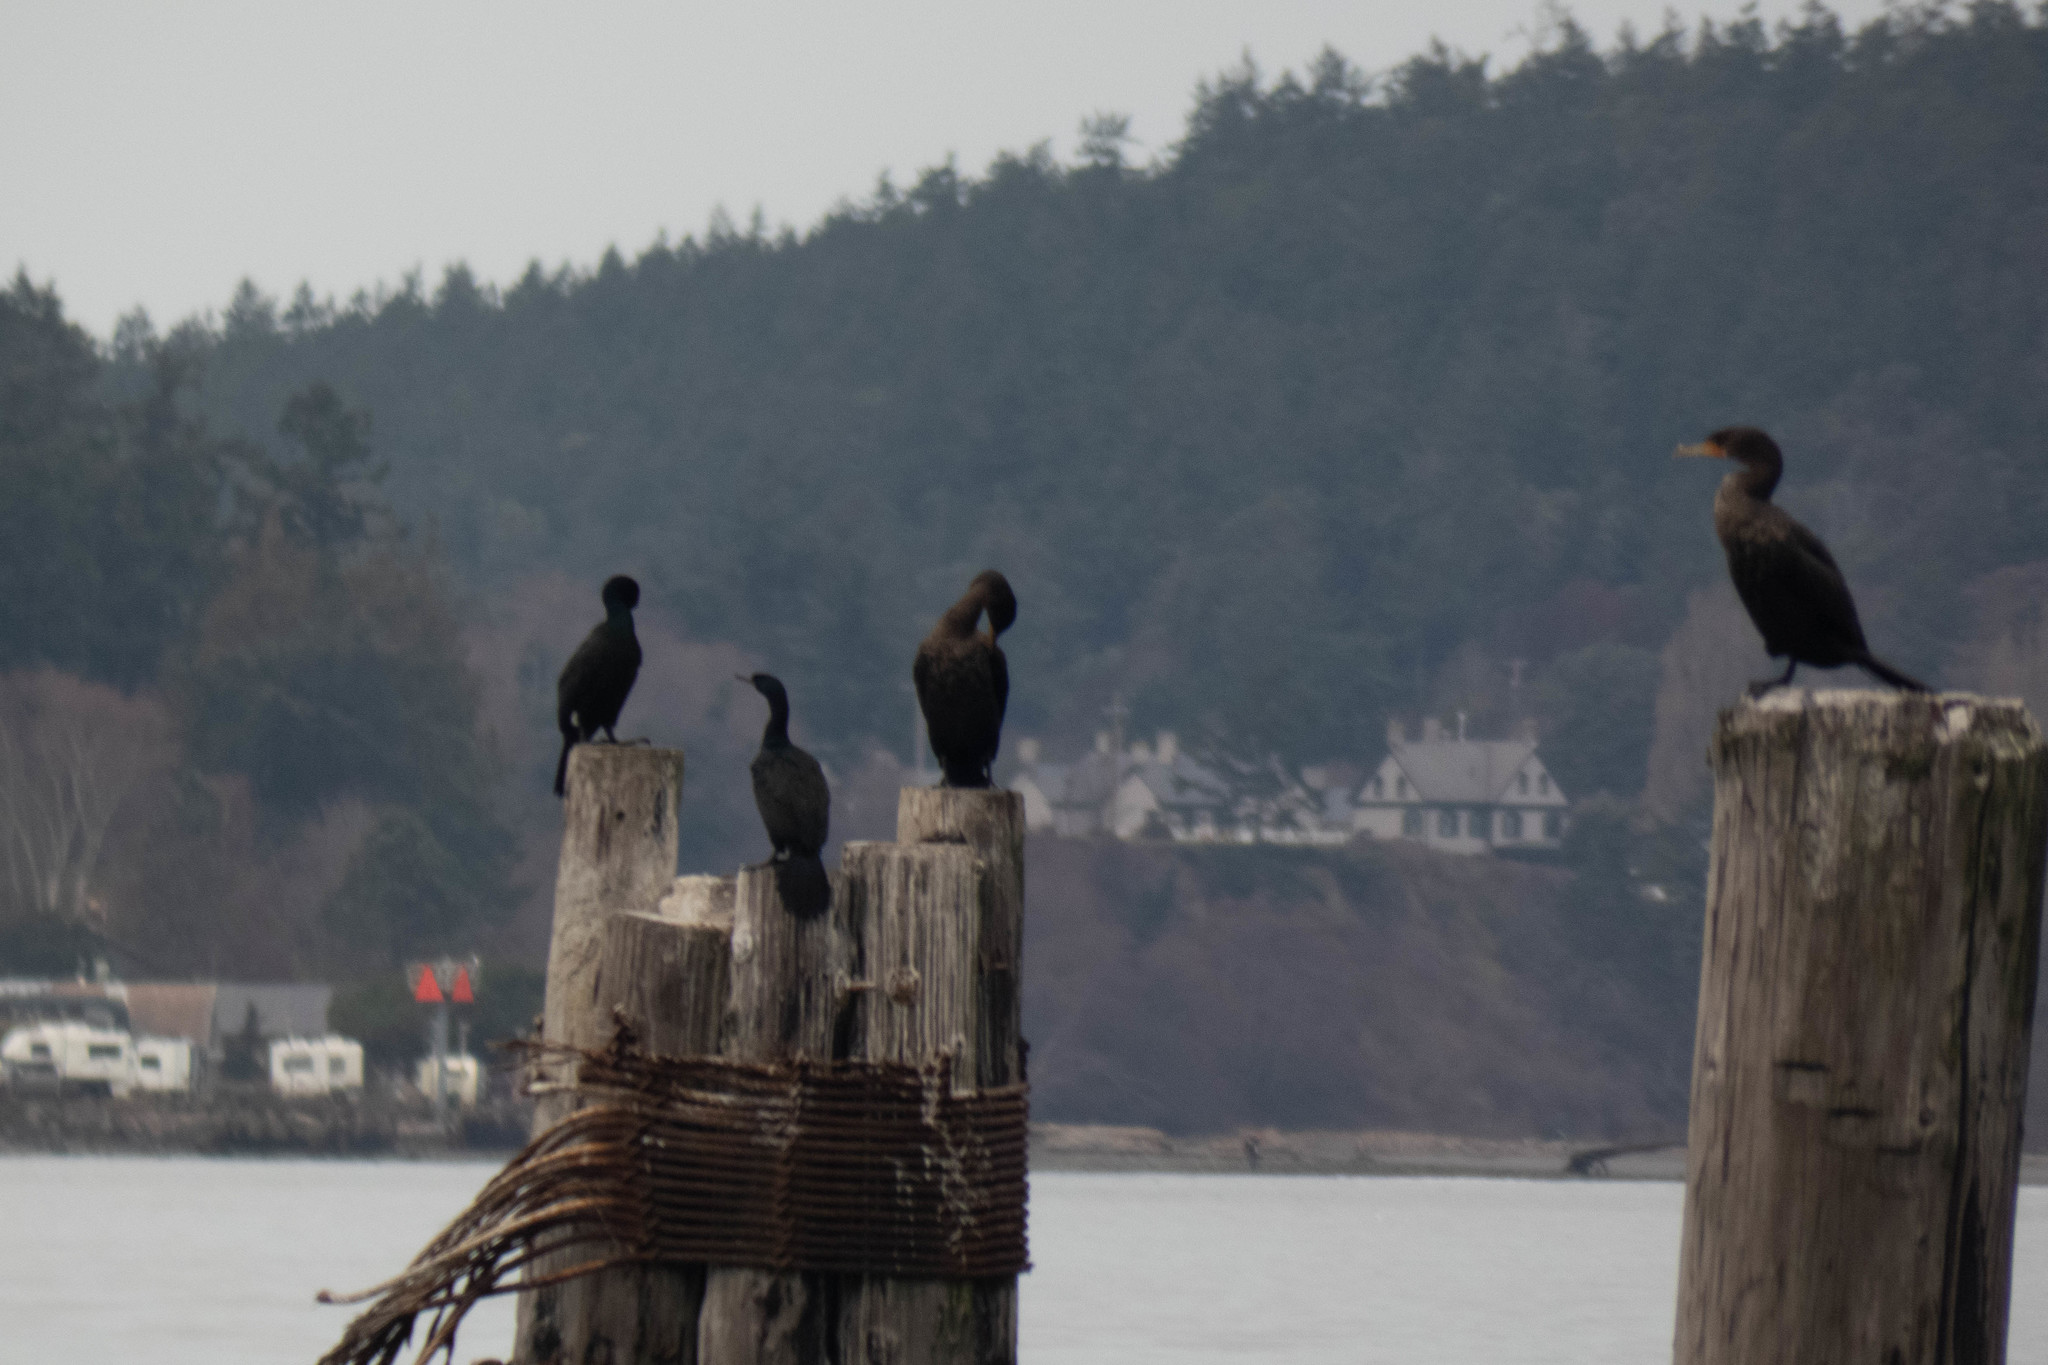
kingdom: Animalia
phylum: Chordata
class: Aves
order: Suliformes
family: Phalacrocoracidae
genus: Phalacrocorax
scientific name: Phalacrocorax pelagicus
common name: Pelagic cormorant
